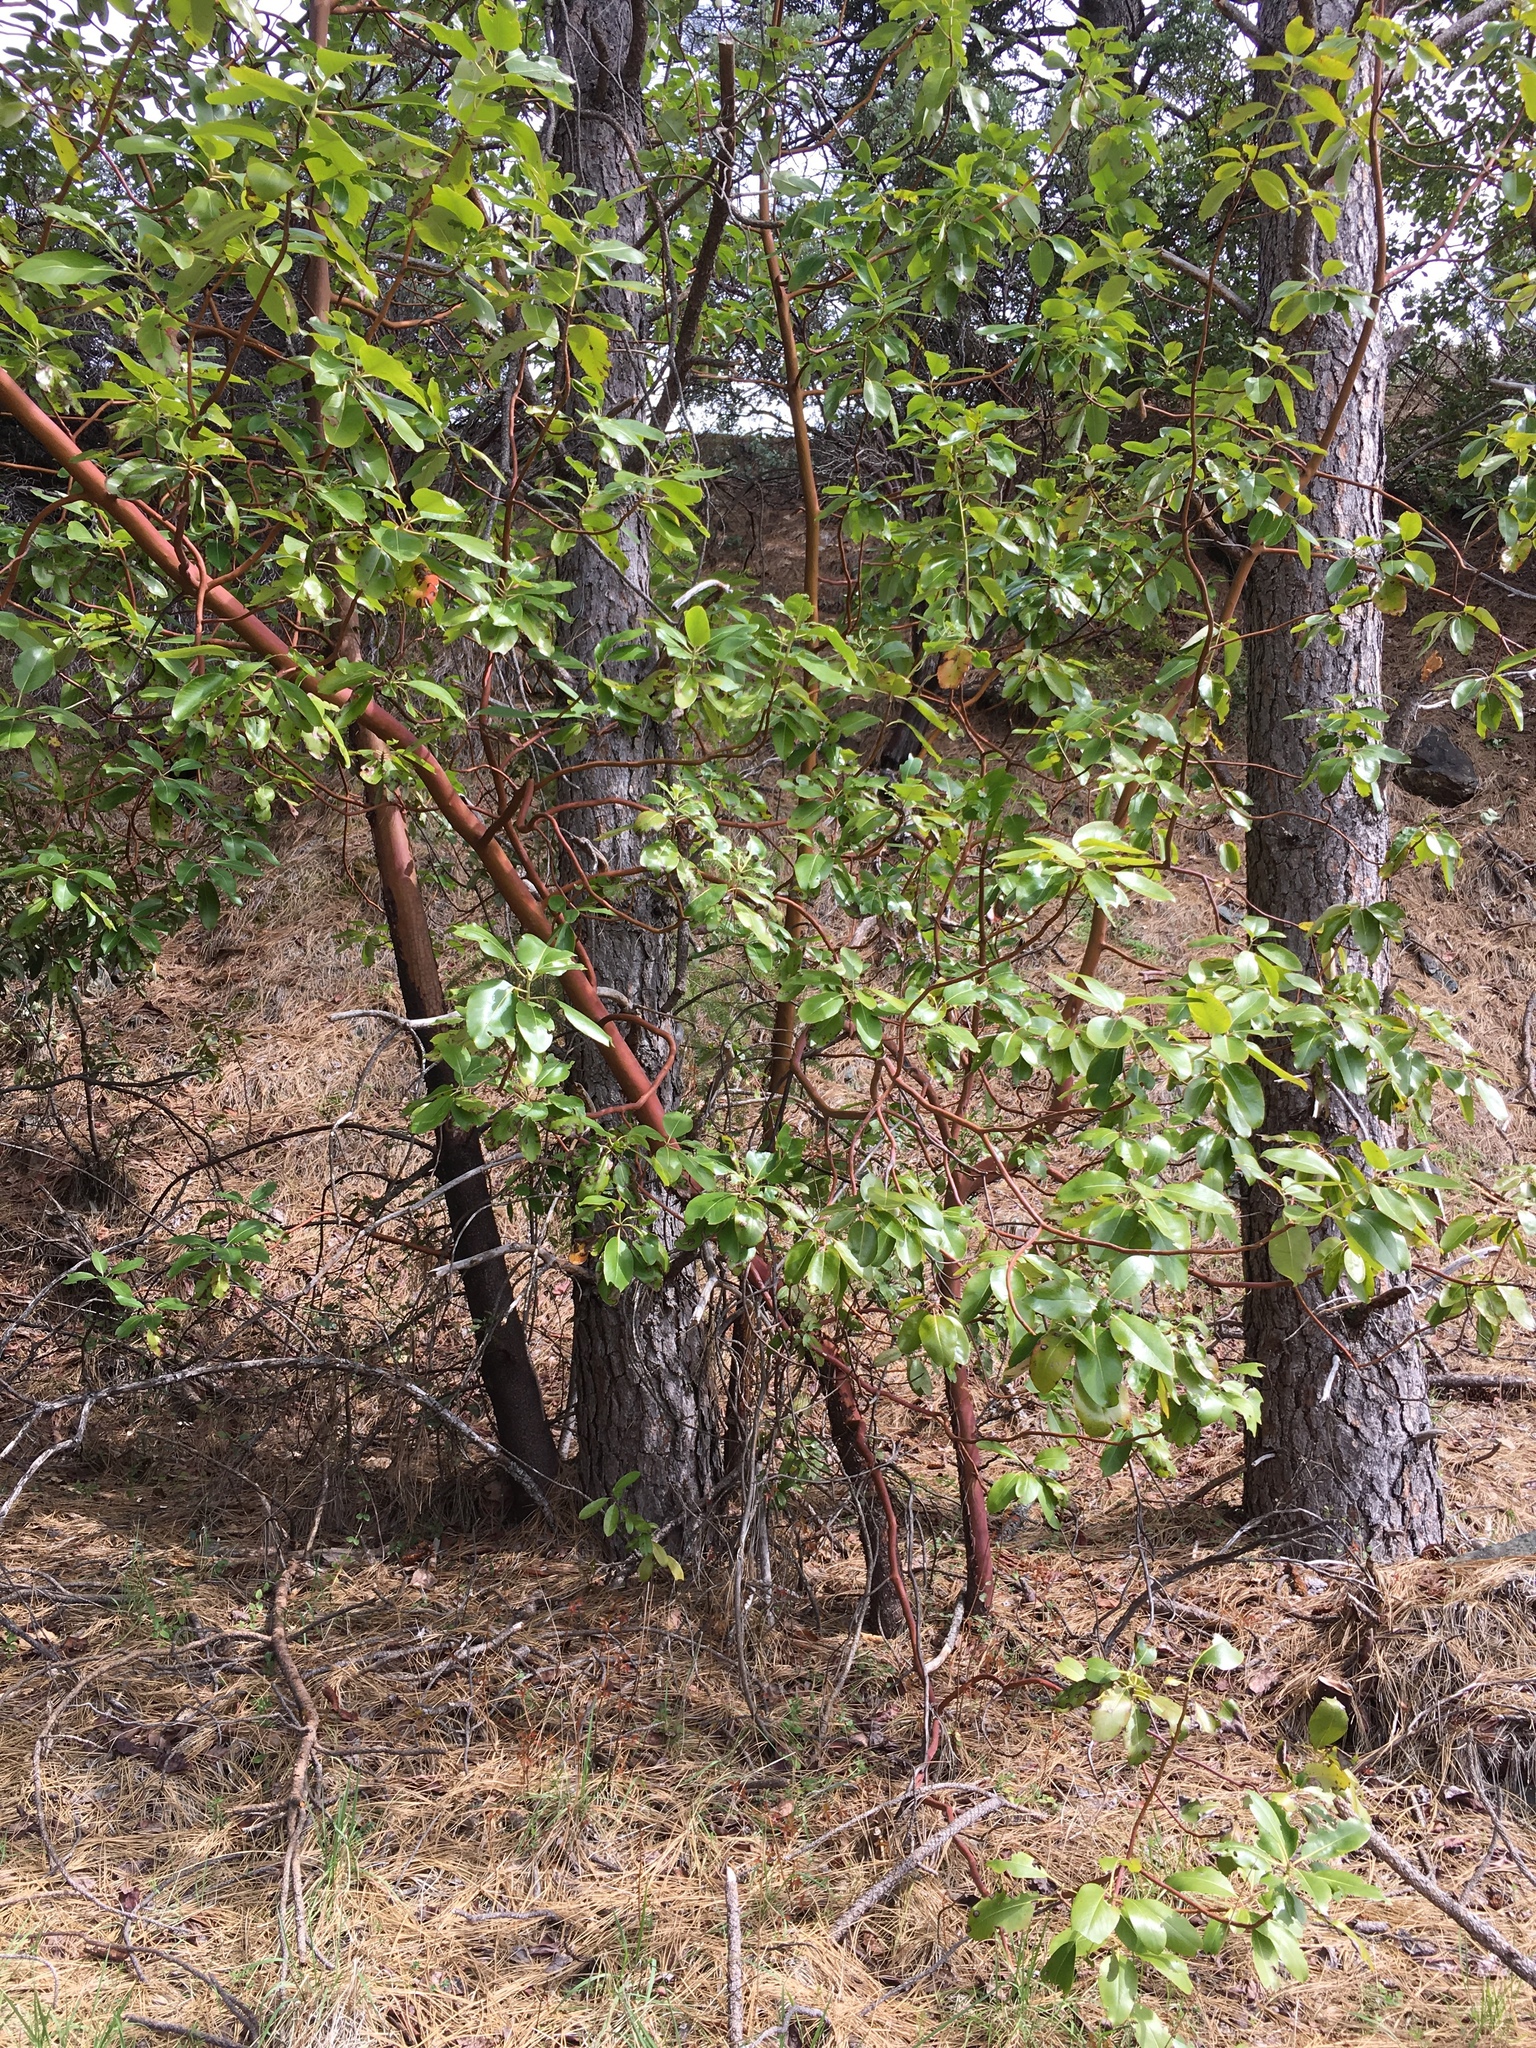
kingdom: Plantae
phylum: Tracheophyta
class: Magnoliopsida
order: Ericales
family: Ericaceae
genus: Arbutus
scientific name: Arbutus menziesii
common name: Pacific madrone
